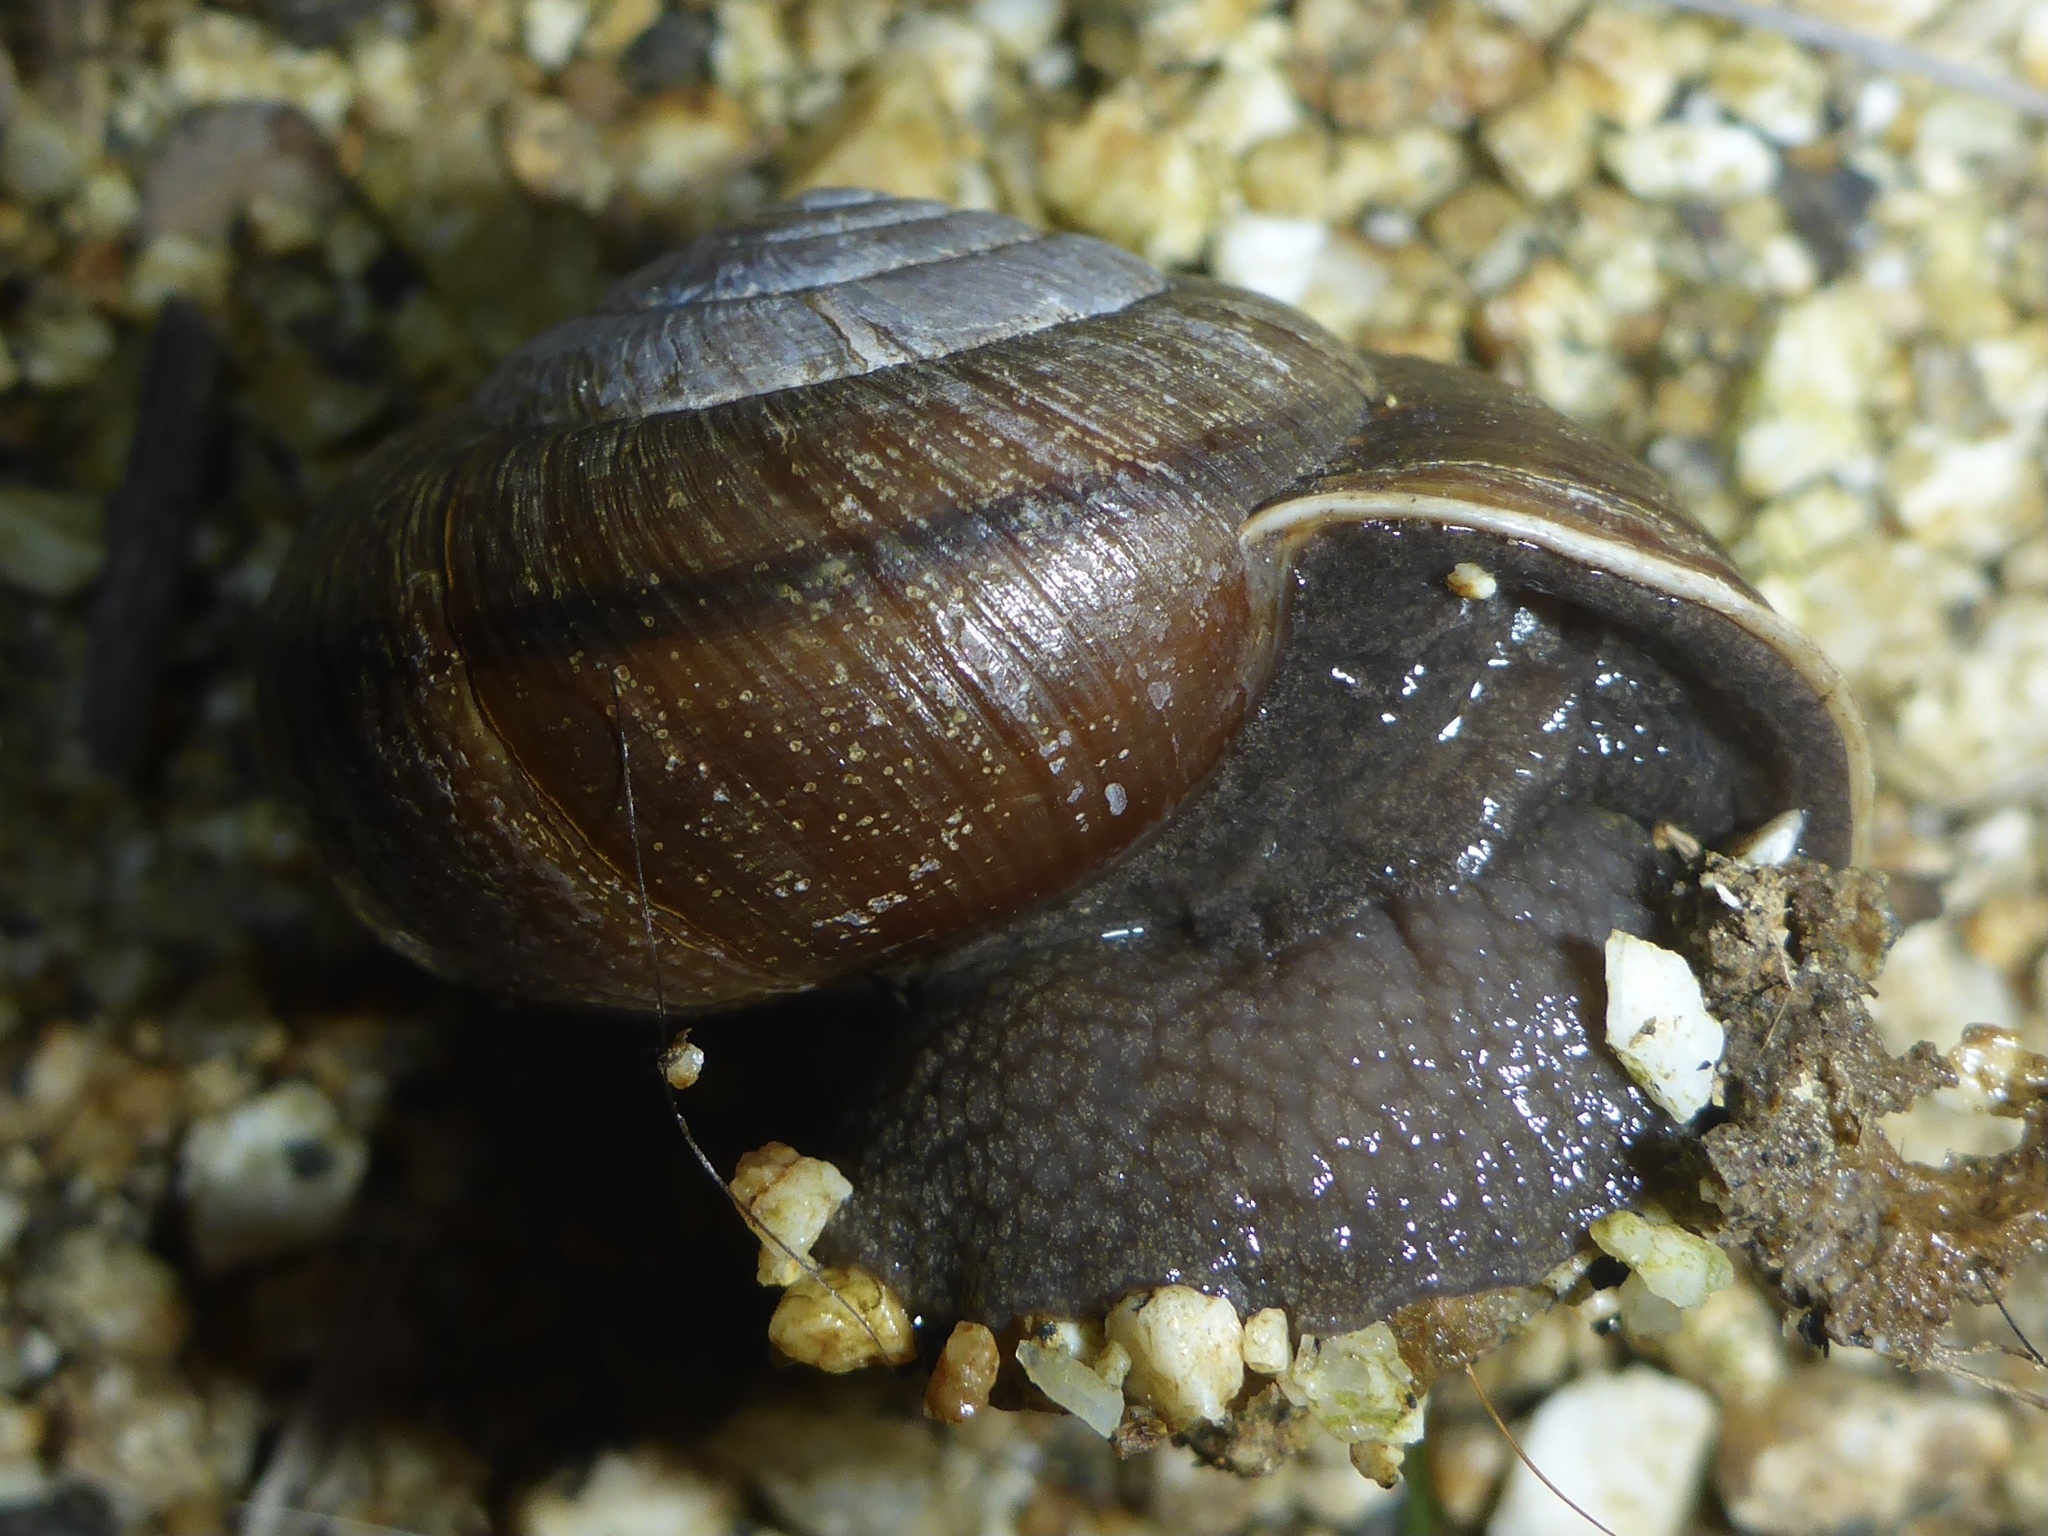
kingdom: Animalia
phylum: Mollusca
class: Gastropoda
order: Stylommatophora
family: Xanthonychidae
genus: Helminthoglypta
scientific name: Helminthoglypta arrosa
